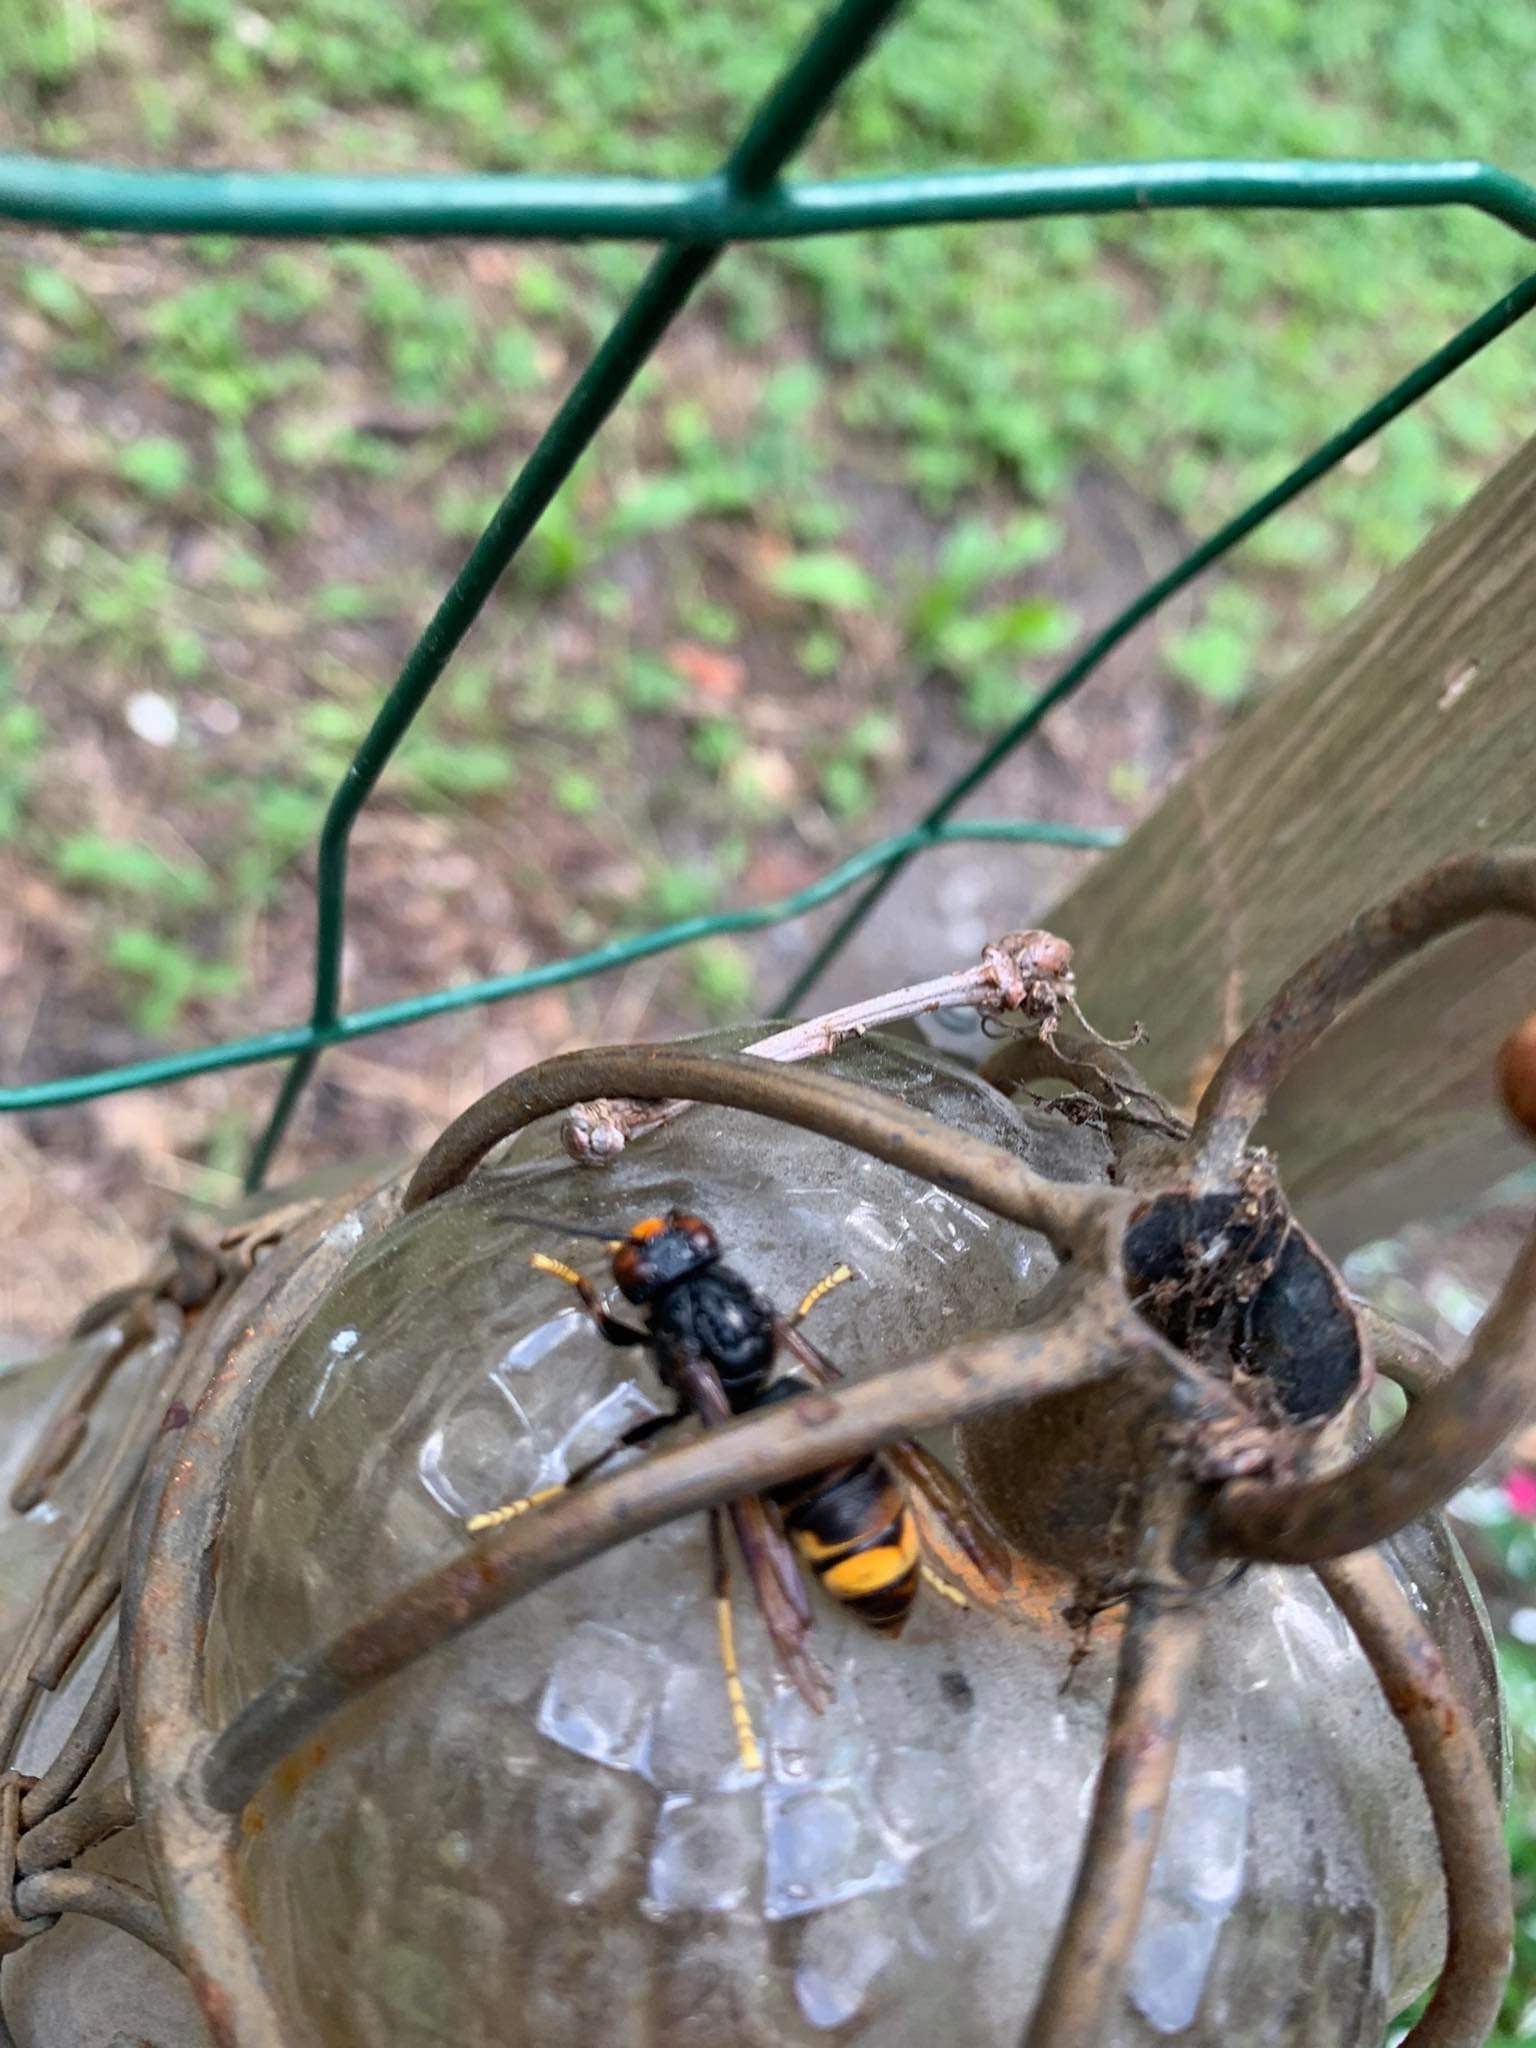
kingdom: Animalia
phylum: Arthropoda
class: Insecta
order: Hymenoptera
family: Vespidae
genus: Vespa
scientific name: Vespa velutina
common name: Asian hornet
